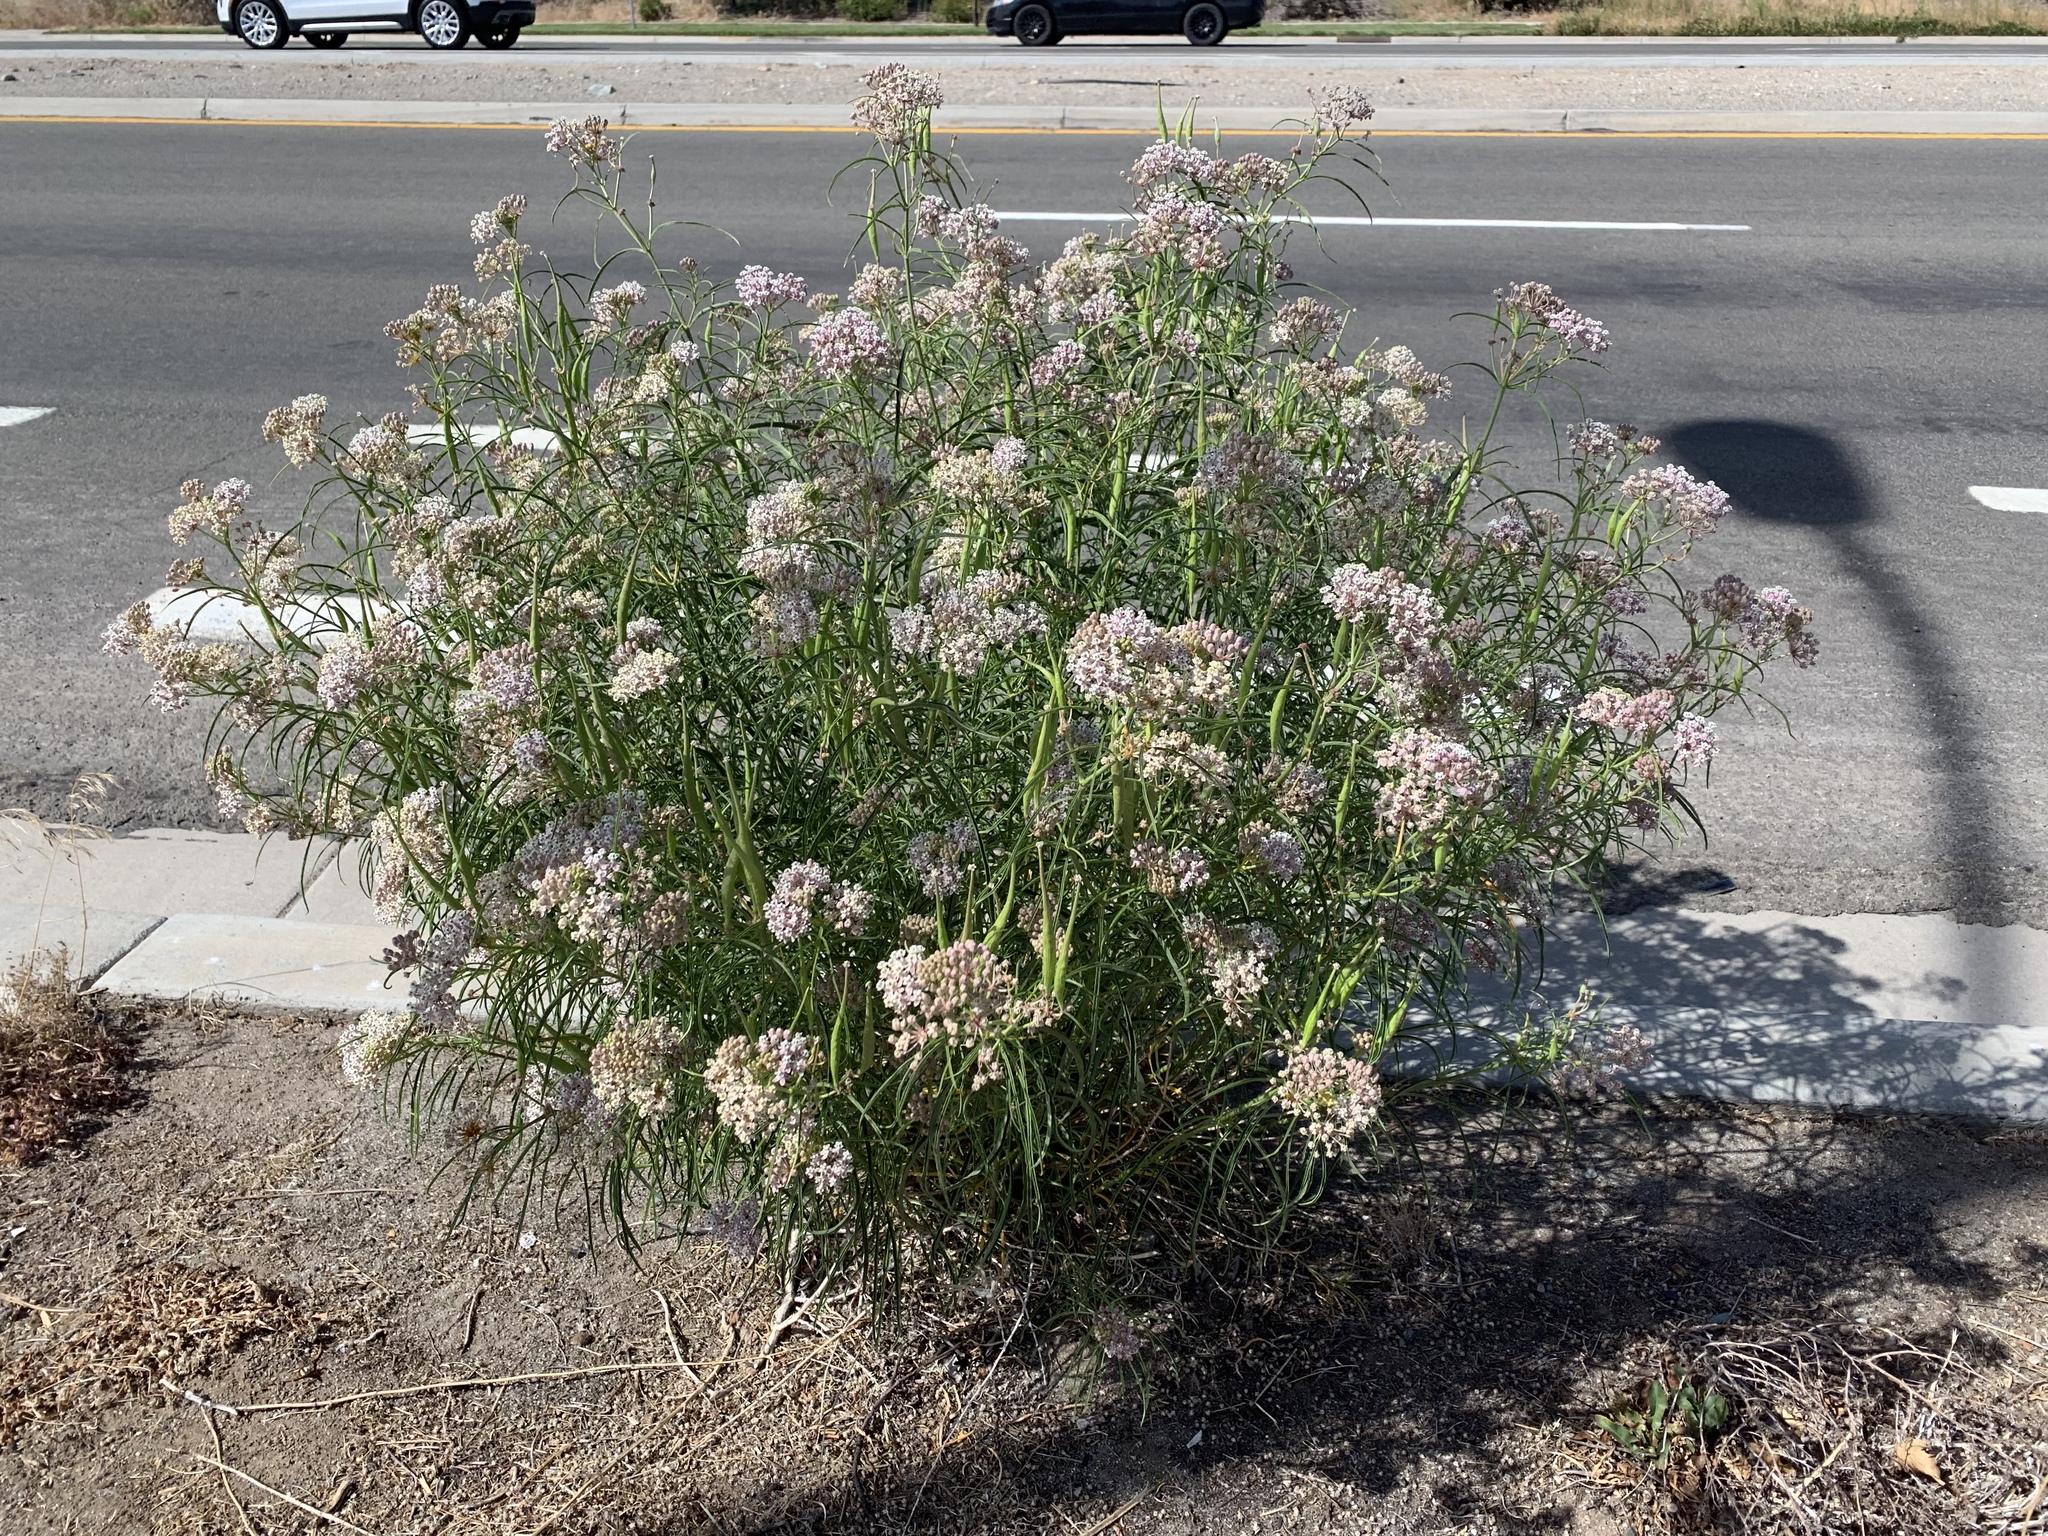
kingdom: Plantae
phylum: Tracheophyta
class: Magnoliopsida
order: Gentianales
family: Apocynaceae
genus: Asclepias
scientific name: Asclepias fascicularis
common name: Mexican milkweed
